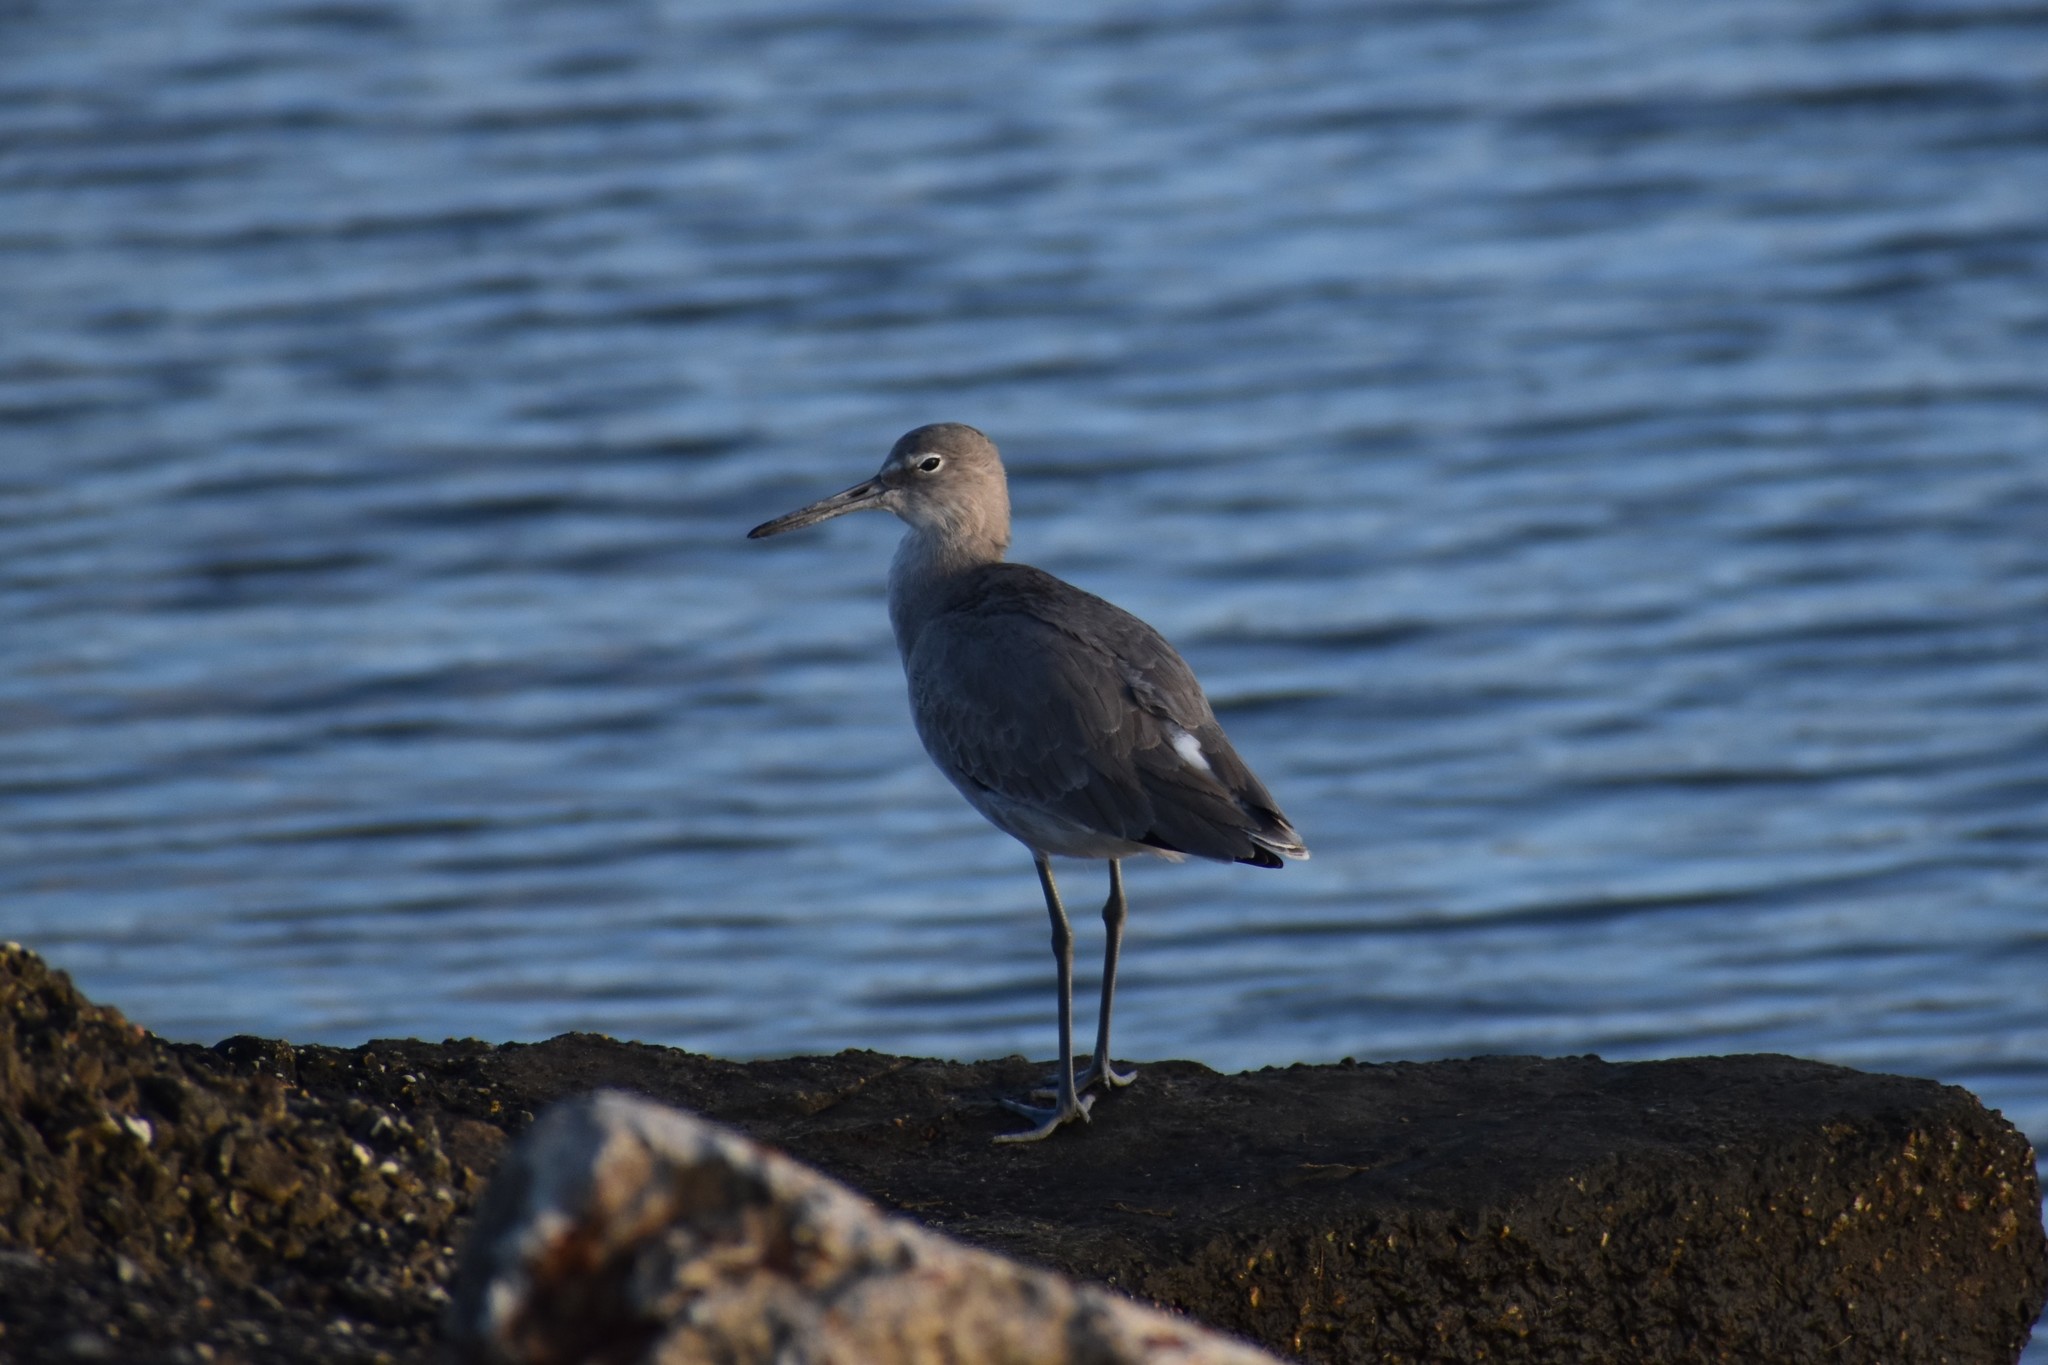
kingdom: Animalia
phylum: Chordata
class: Aves
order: Charadriiformes
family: Scolopacidae
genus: Tringa
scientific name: Tringa semipalmata
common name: Willet
